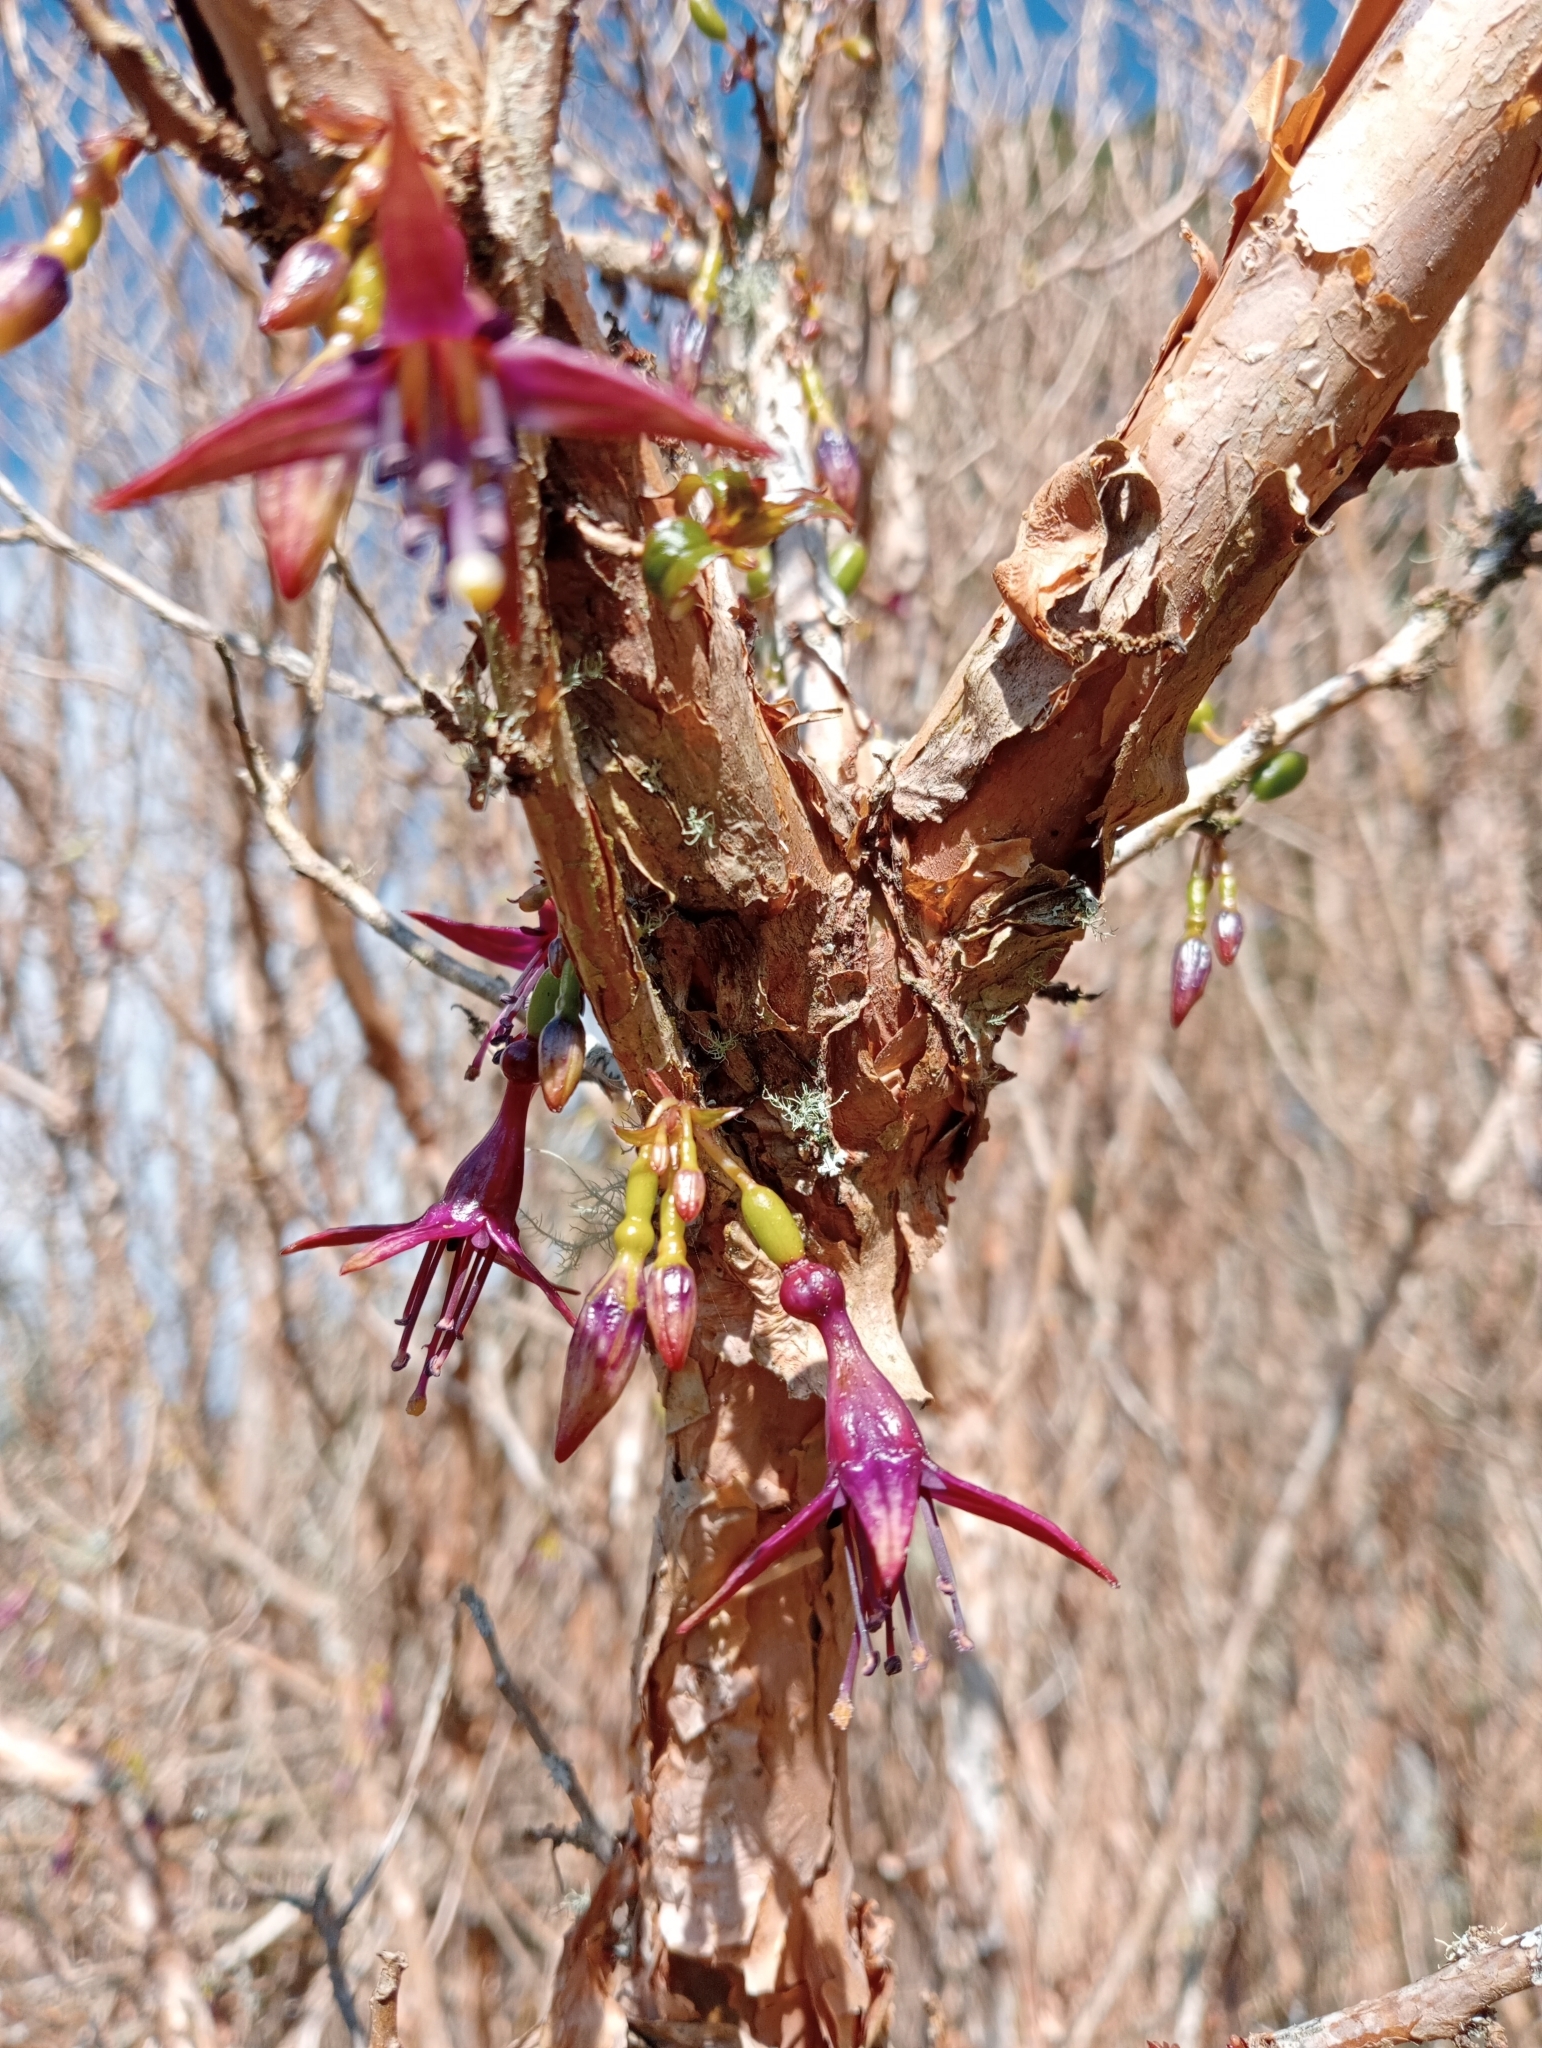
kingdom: Plantae
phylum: Tracheophyta
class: Magnoliopsida
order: Myrtales
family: Onagraceae
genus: Fuchsia
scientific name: Fuchsia excorticata
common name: Tree fuchsia
